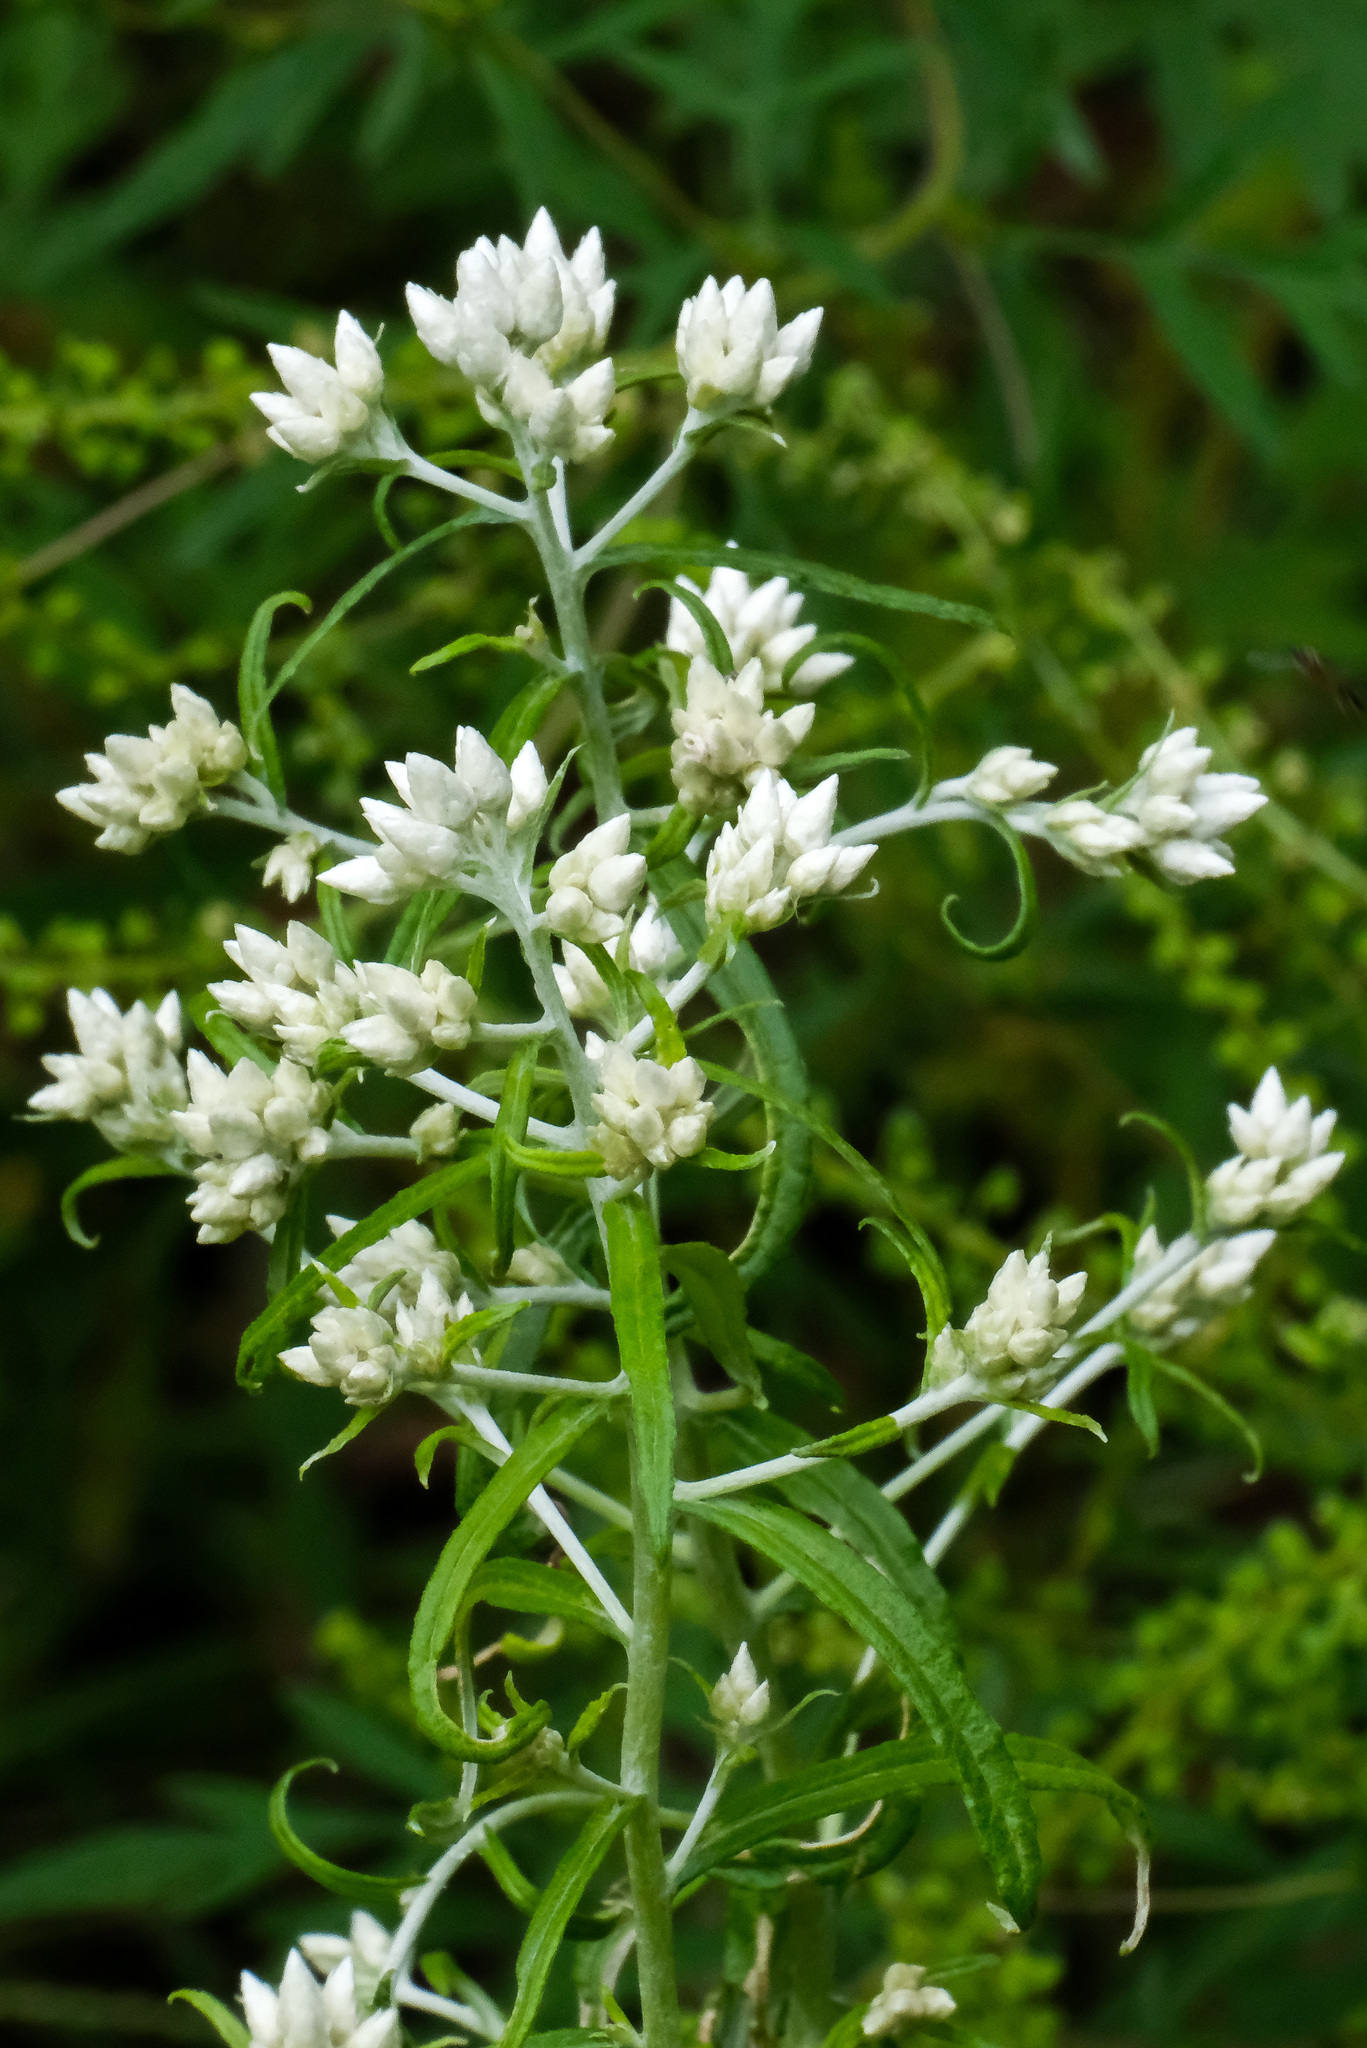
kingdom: Plantae
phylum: Tracheophyta
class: Magnoliopsida
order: Asterales
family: Asteraceae
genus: Pseudognaphalium
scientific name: Pseudognaphalium obtusifolium
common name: Eastern rabbit-tobacco
